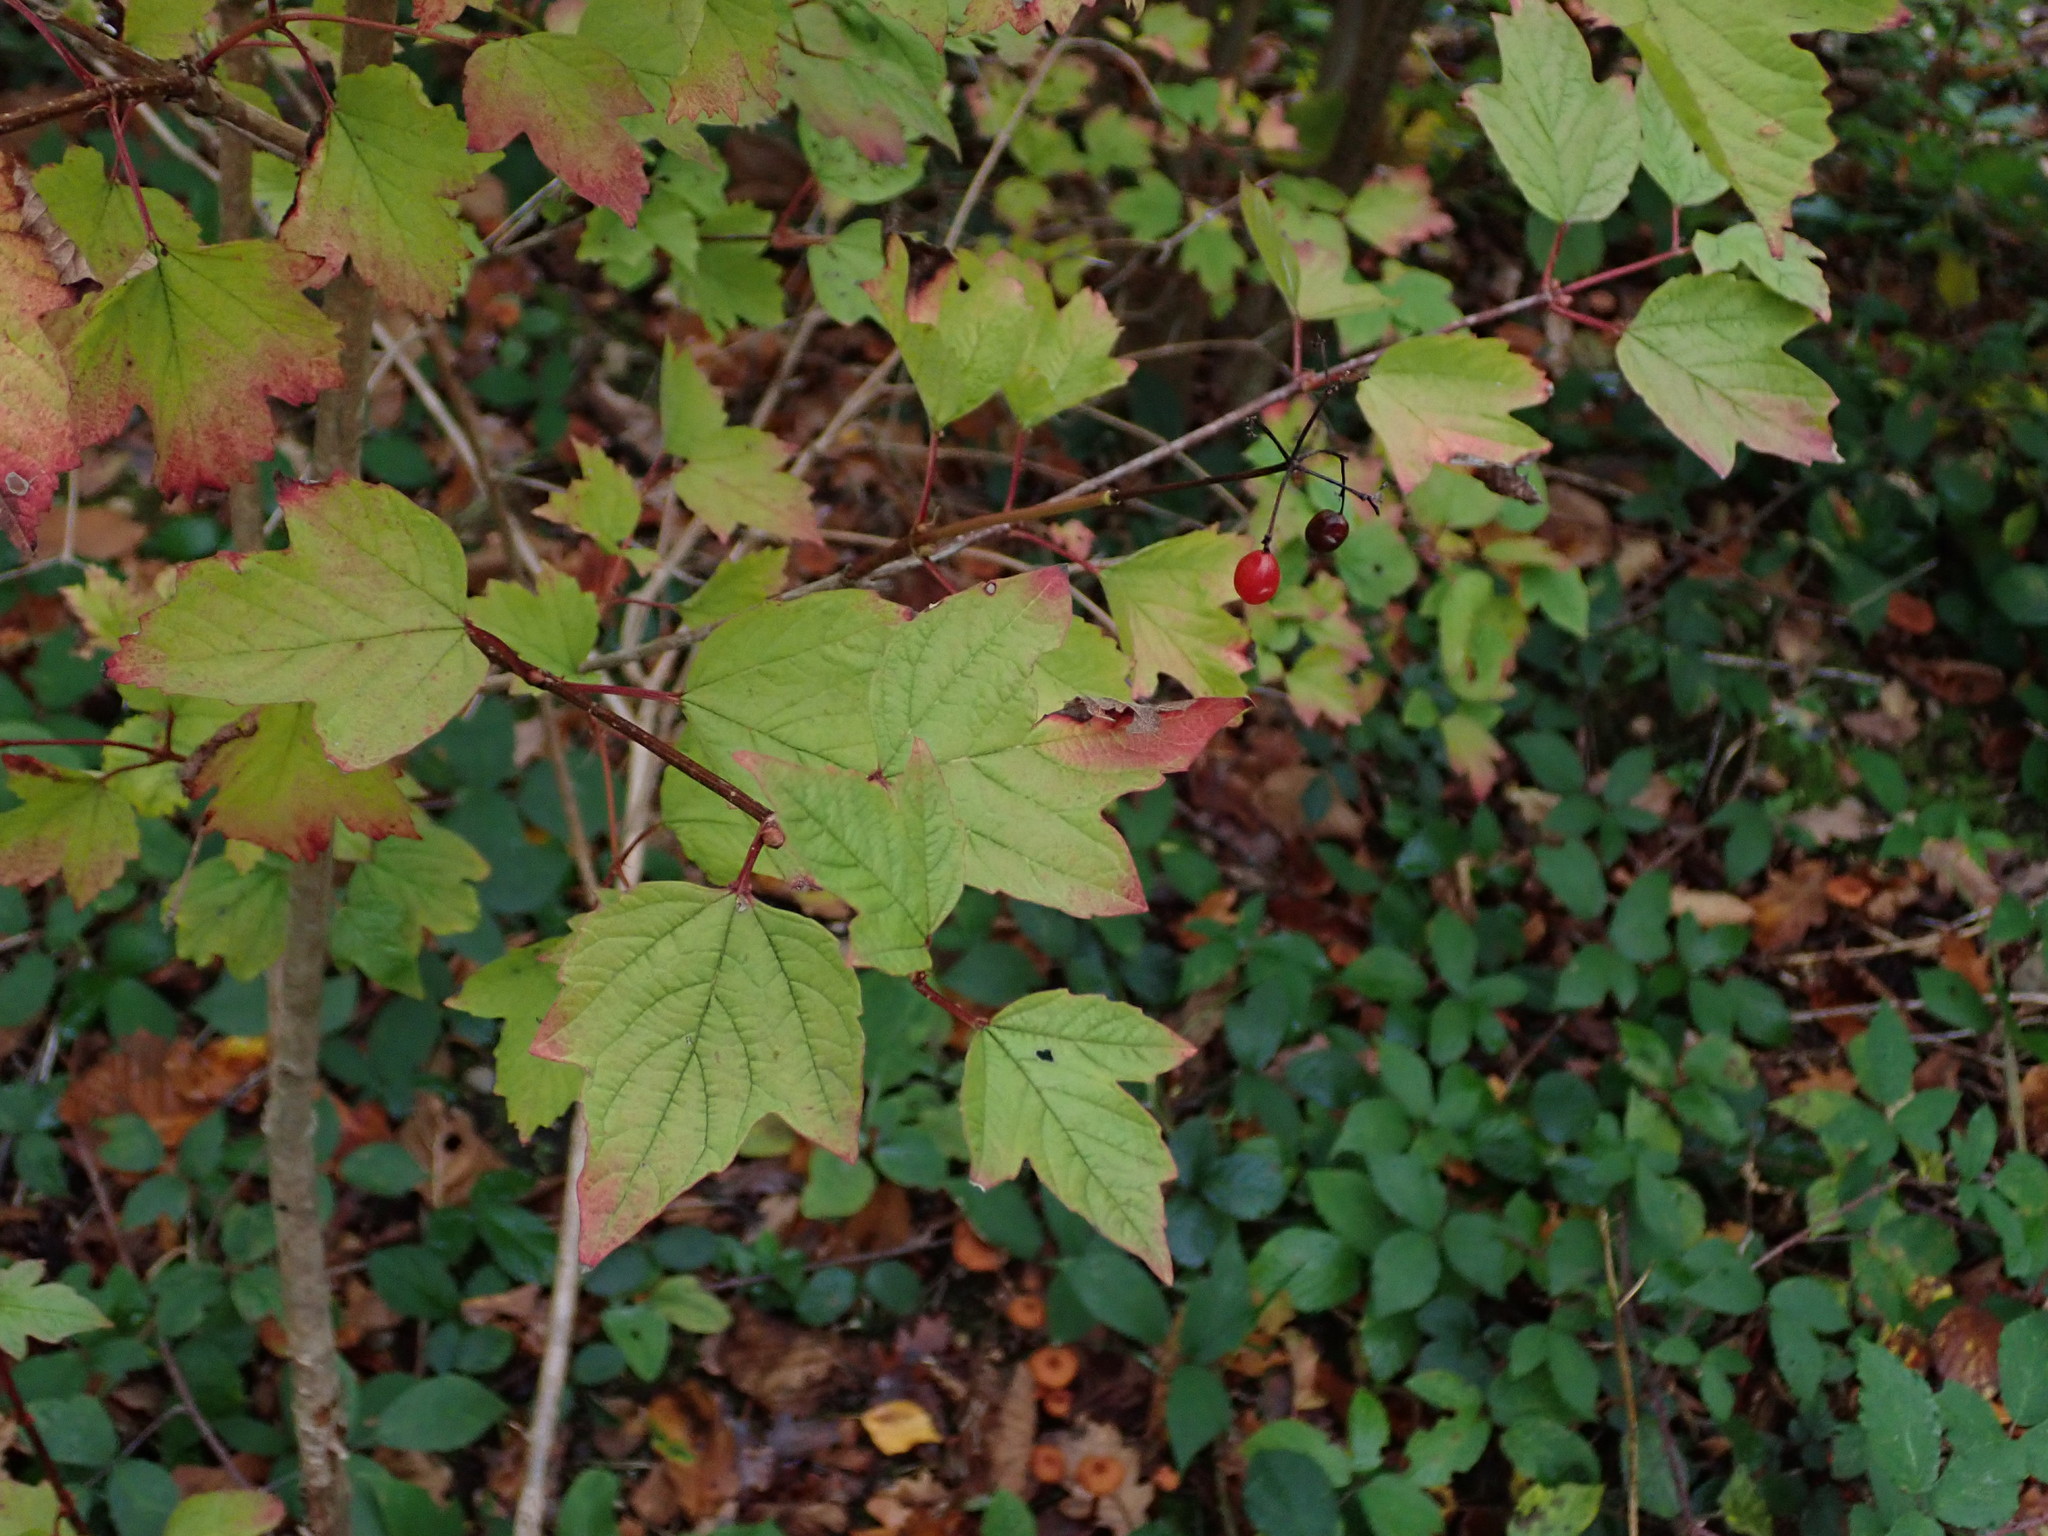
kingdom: Plantae
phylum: Tracheophyta
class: Magnoliopsida
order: Dipsacales
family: Viburnaceae
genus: Viburnum
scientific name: Viburnum opulus
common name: Guelder-rose
